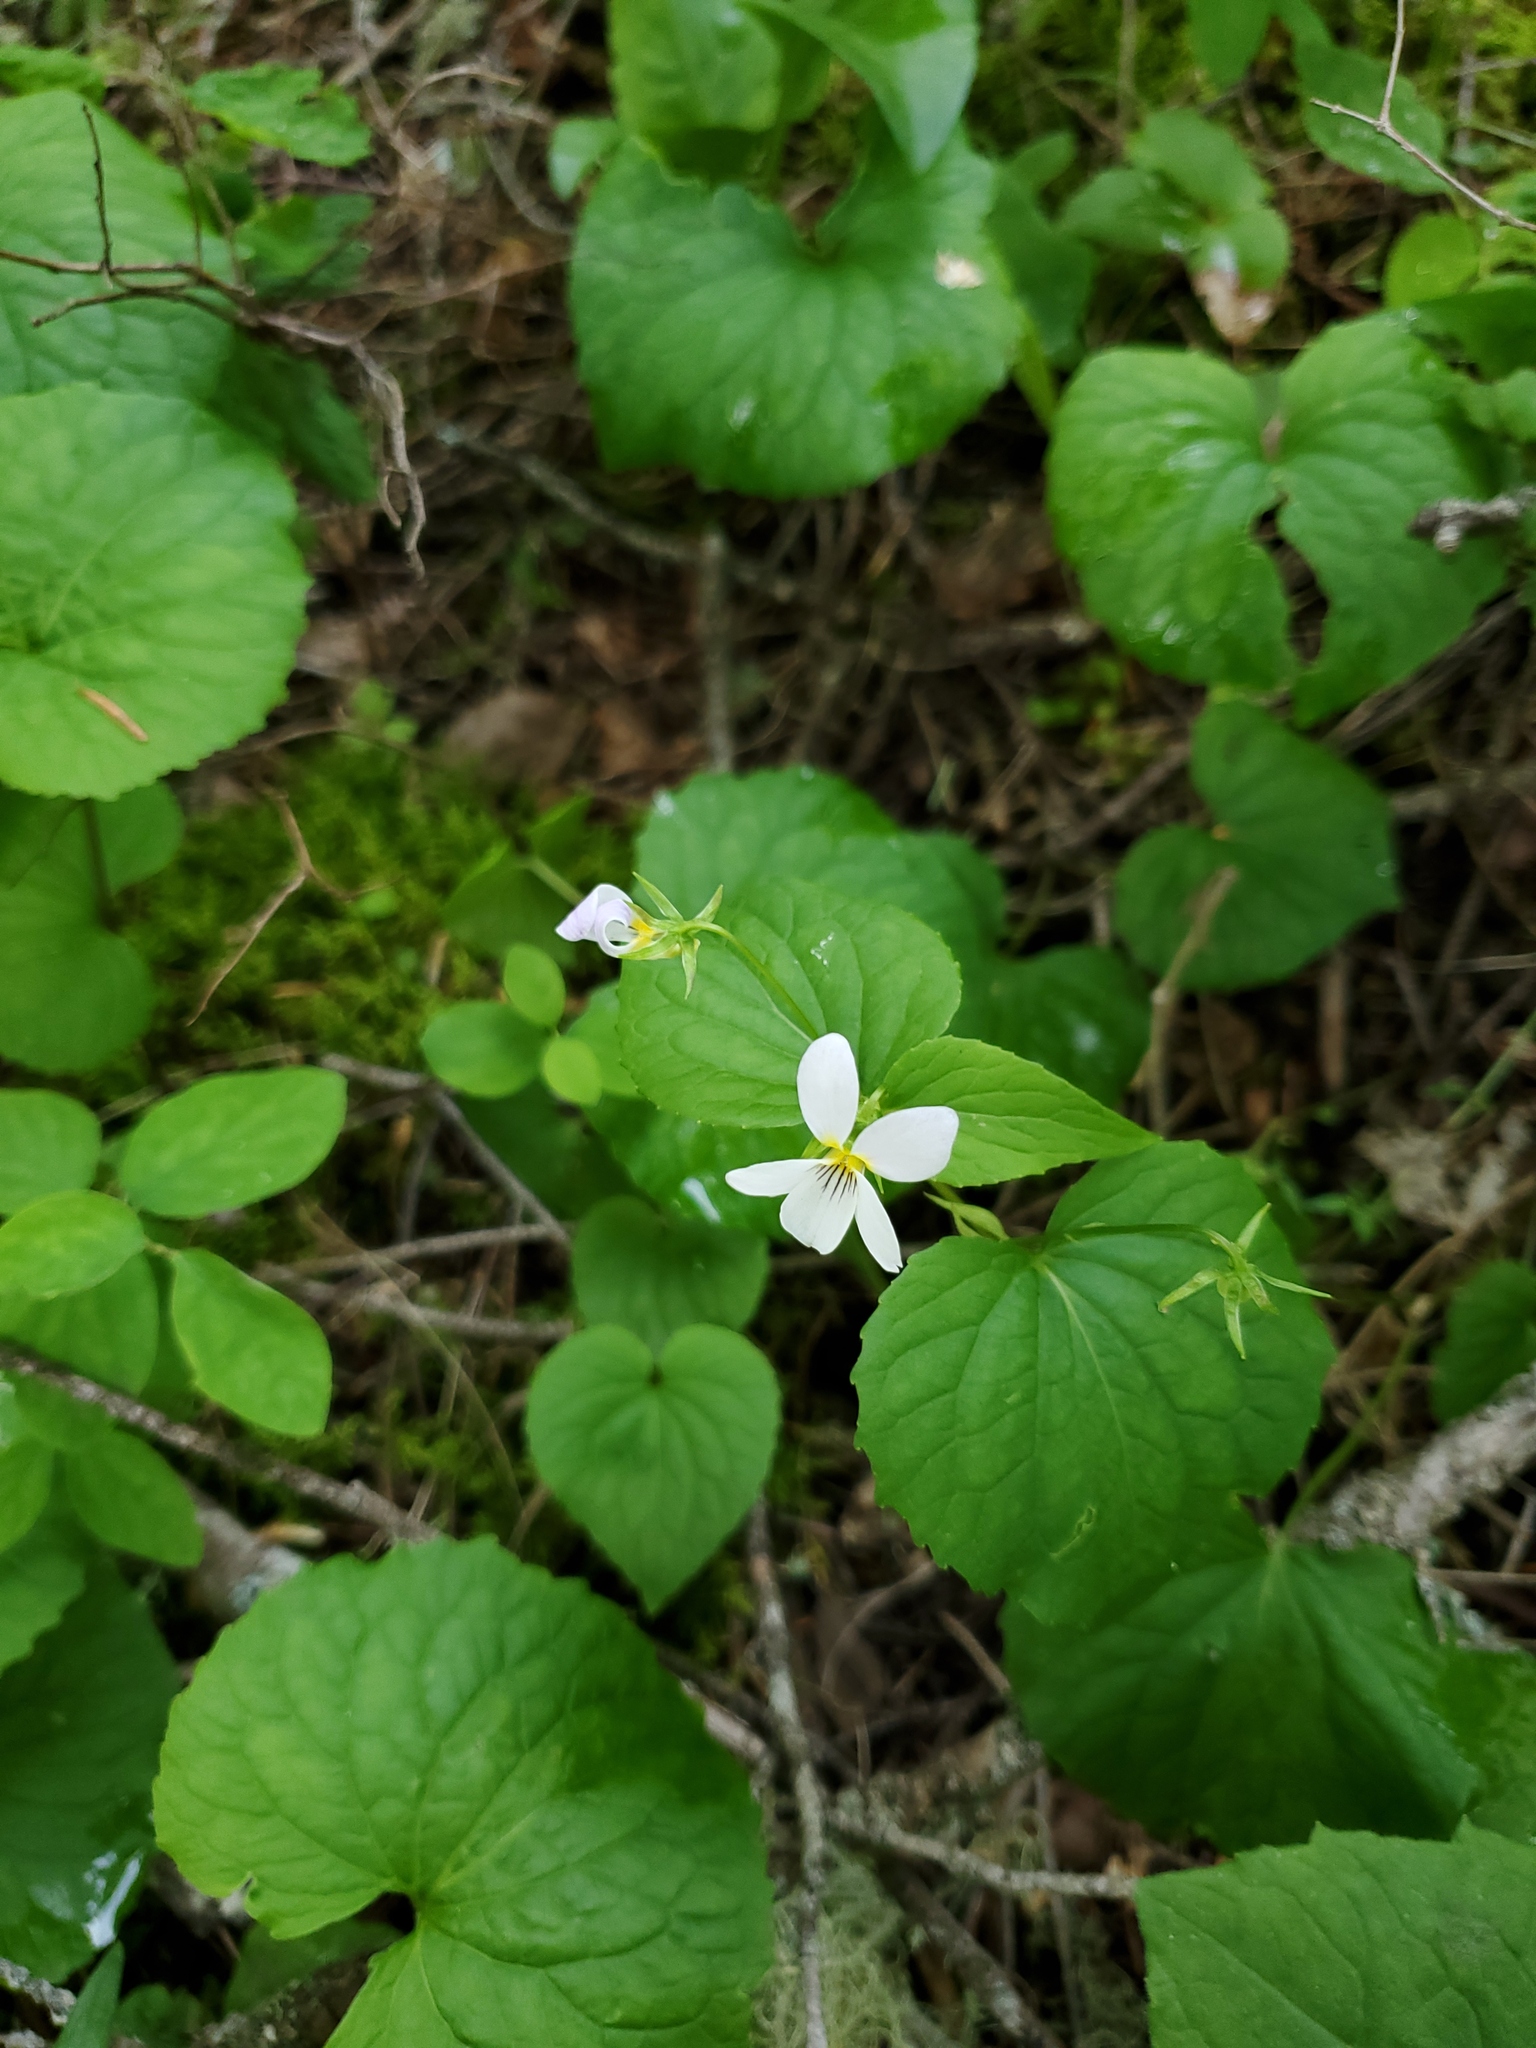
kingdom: Plantae
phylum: Tracheophyta
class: Magnoliopsida
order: Malpighiales
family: Violaceae
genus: Viola
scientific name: Viola canadensis
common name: Canada violet
